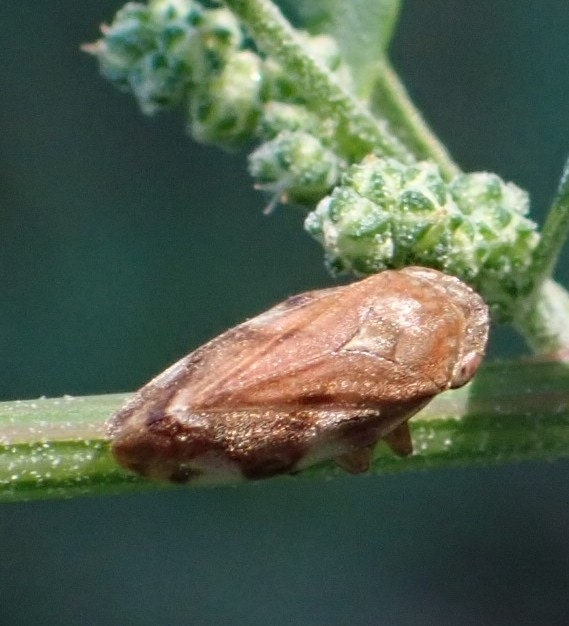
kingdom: Animalia
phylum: Arthropoda
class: Insecta
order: Hemiptera
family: Aphrophoridae
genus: Philaenus
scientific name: Philaenus spumarius
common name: Meadow spittlebug
